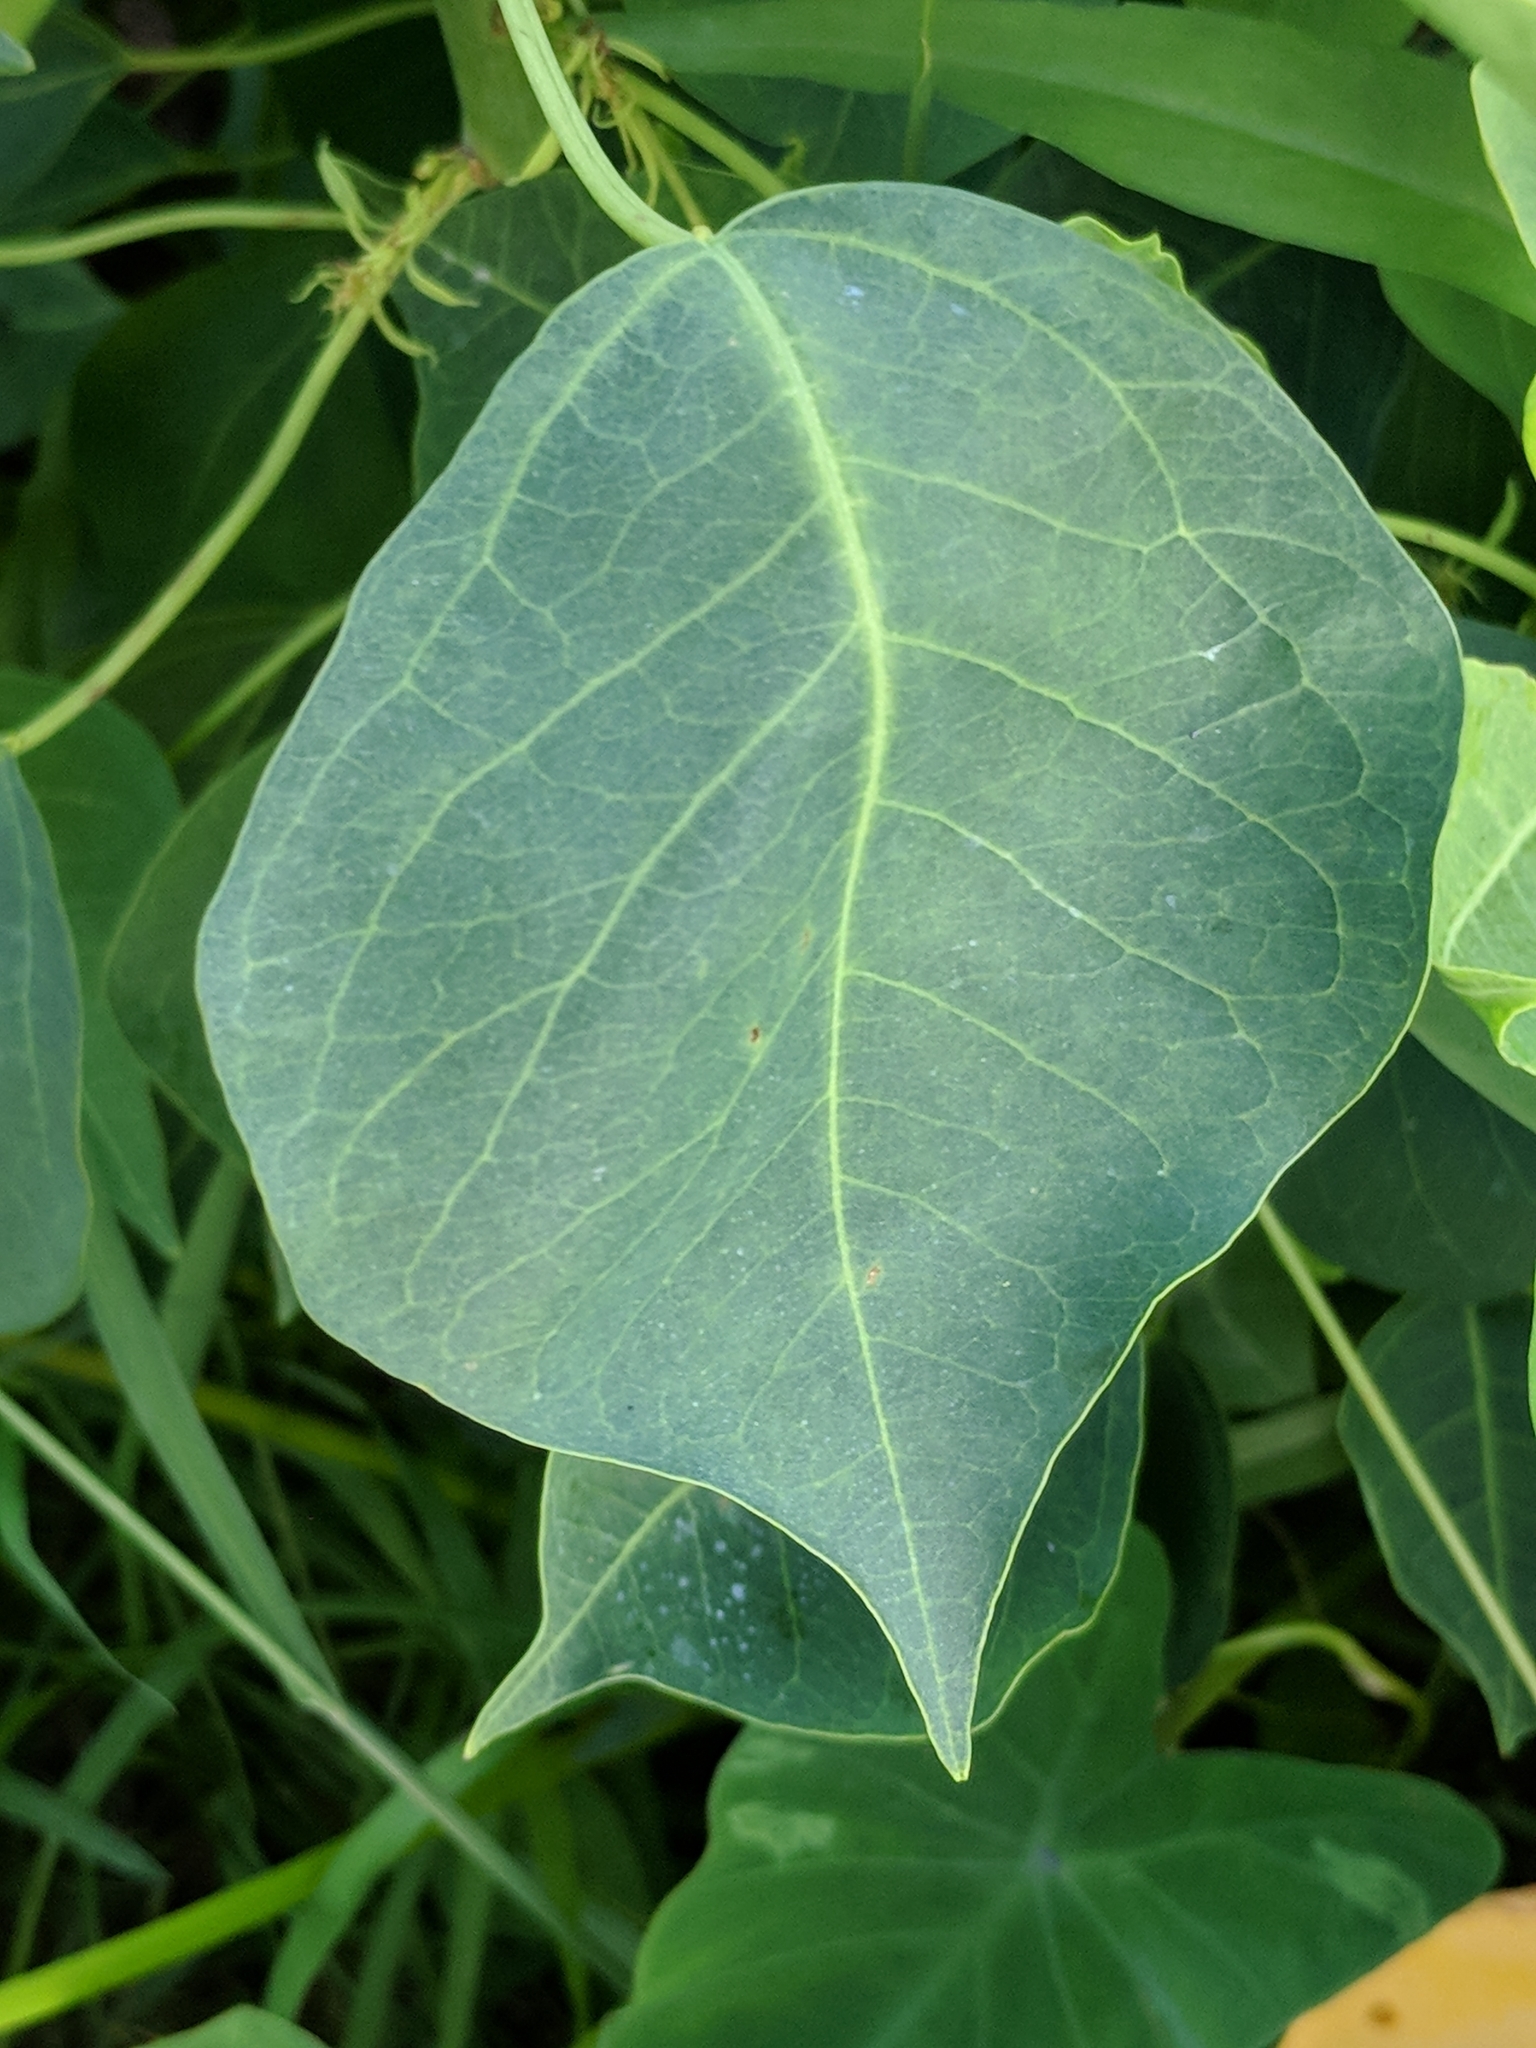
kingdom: Plantae
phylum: Tracheophyta
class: Magnoliopsida
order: Malpighiales
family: Euphorbiaceae
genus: Triadica
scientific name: Triadica sebifera
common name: Chinese tallow
